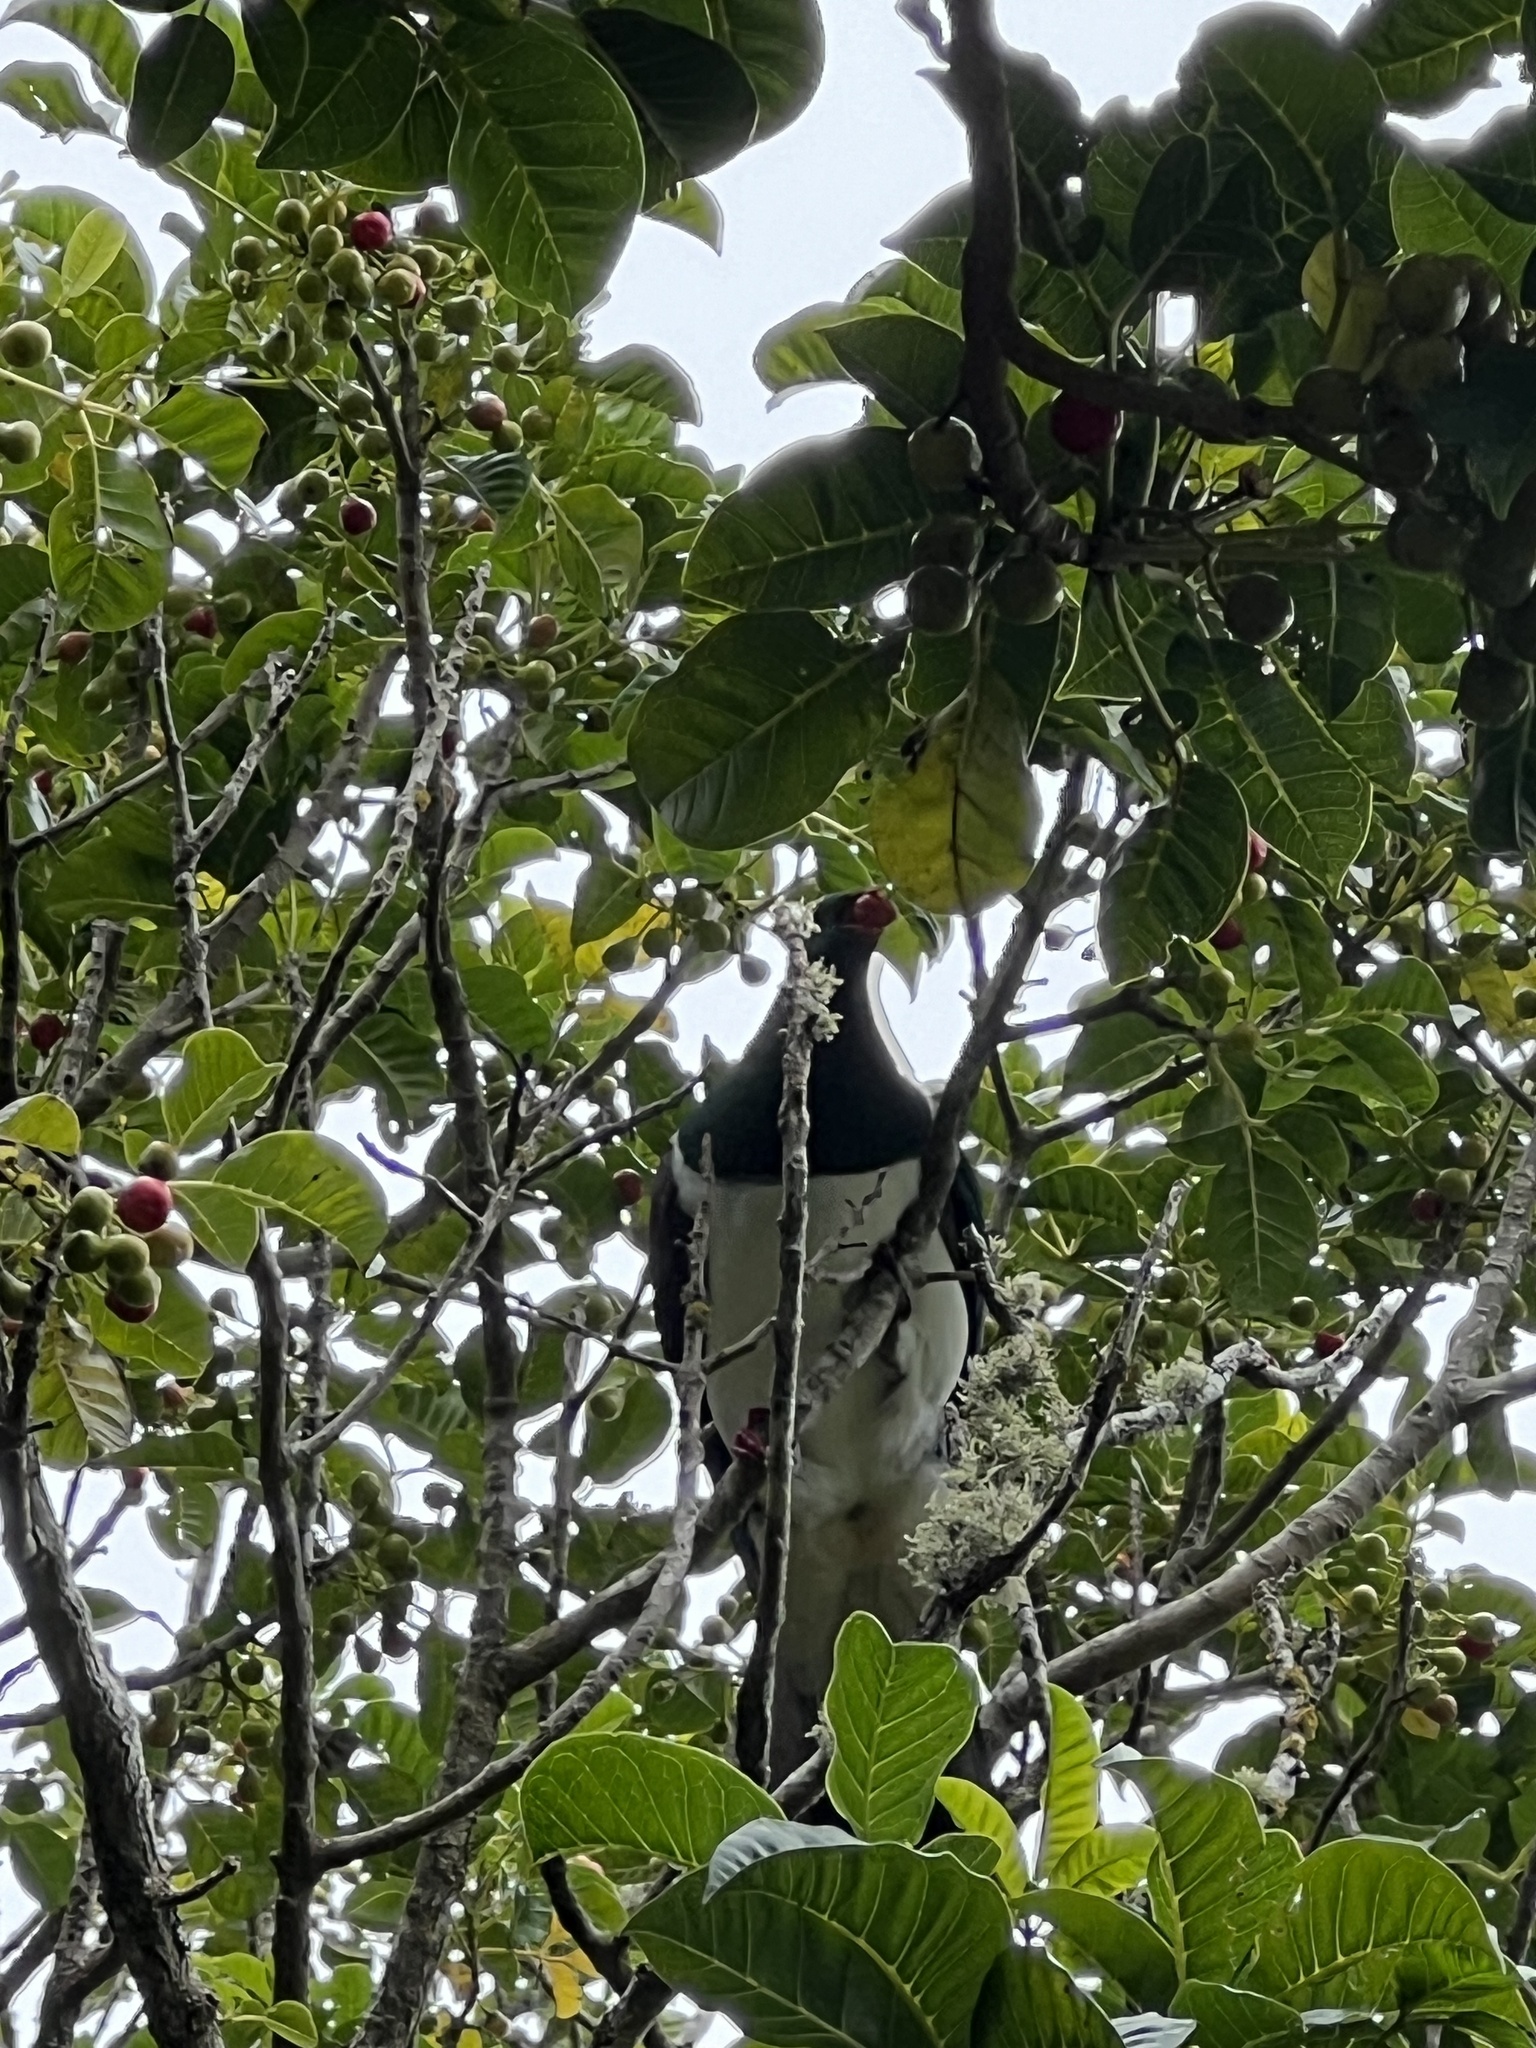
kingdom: Animalia
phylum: Chordata
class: Aves
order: Columbiformes
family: Columbidae
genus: Hemiphaga
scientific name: Hemiphaga novaeseelandiae
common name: New zealand pigeon
